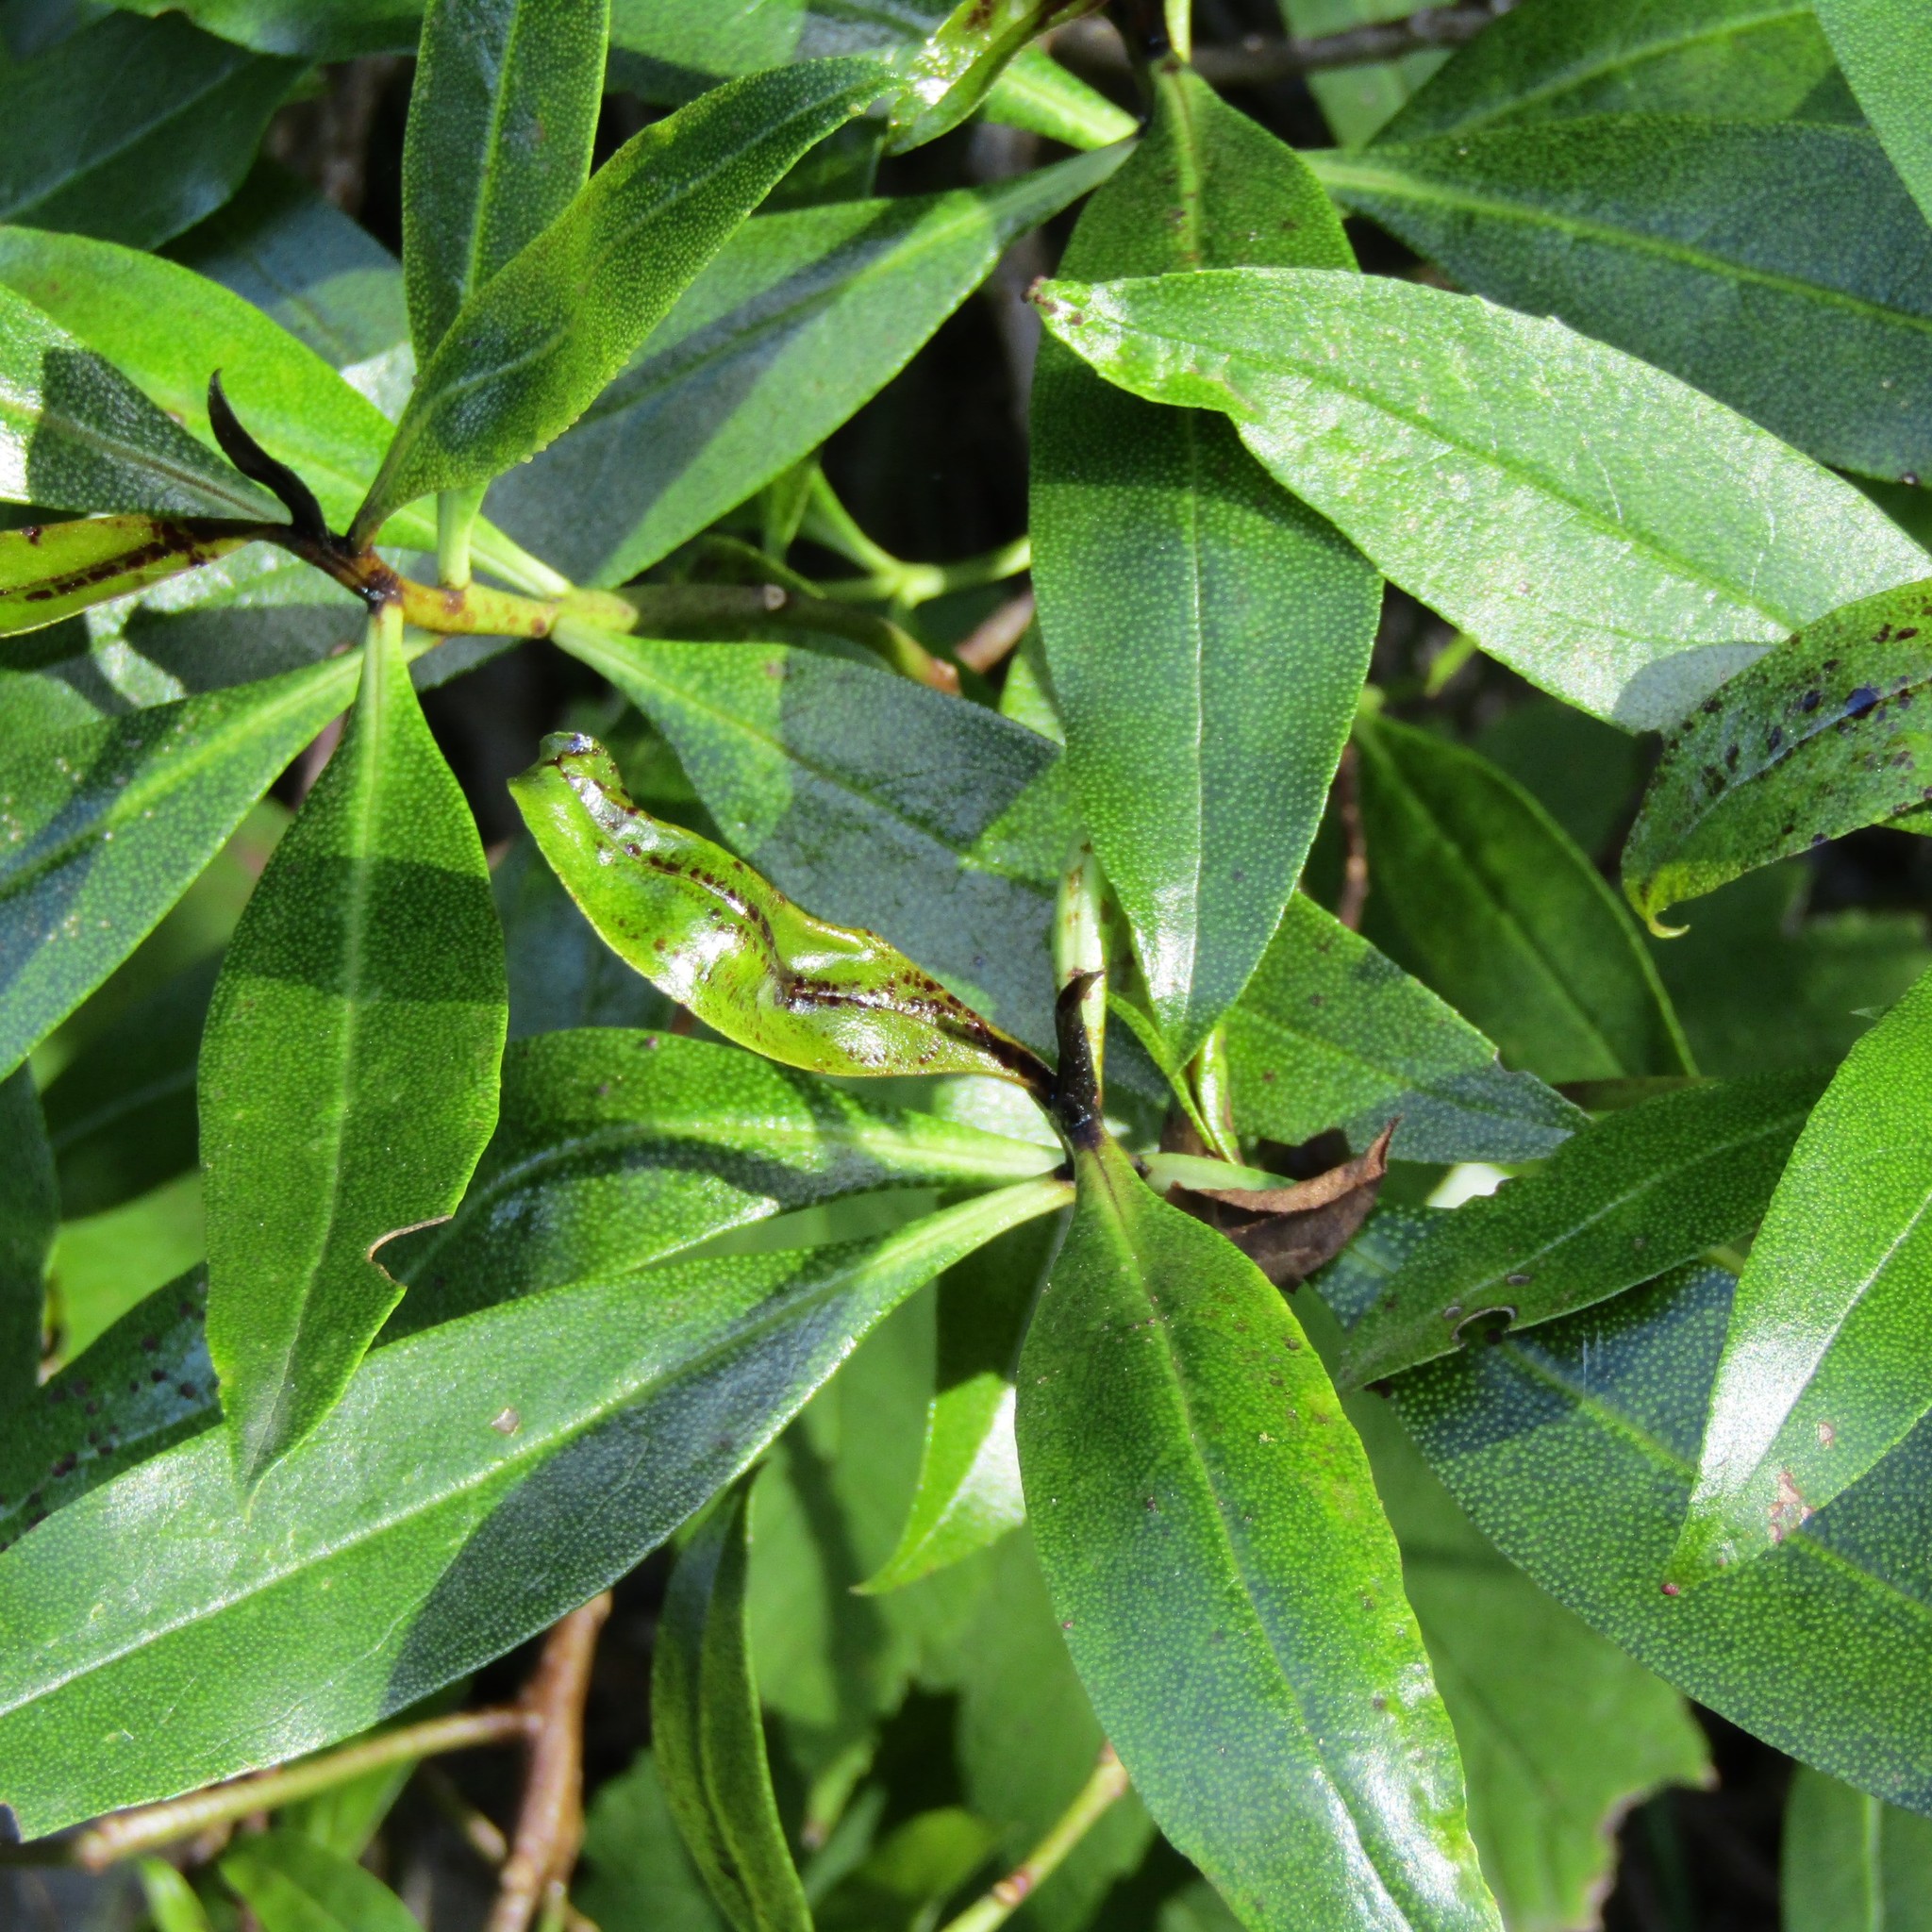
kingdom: Plantae
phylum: Tracheophyta
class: Magnoliopsida
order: Lamiales
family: Scrophulariaceae
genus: Myoporum
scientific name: Myoporum laetum
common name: Ngaio tree
